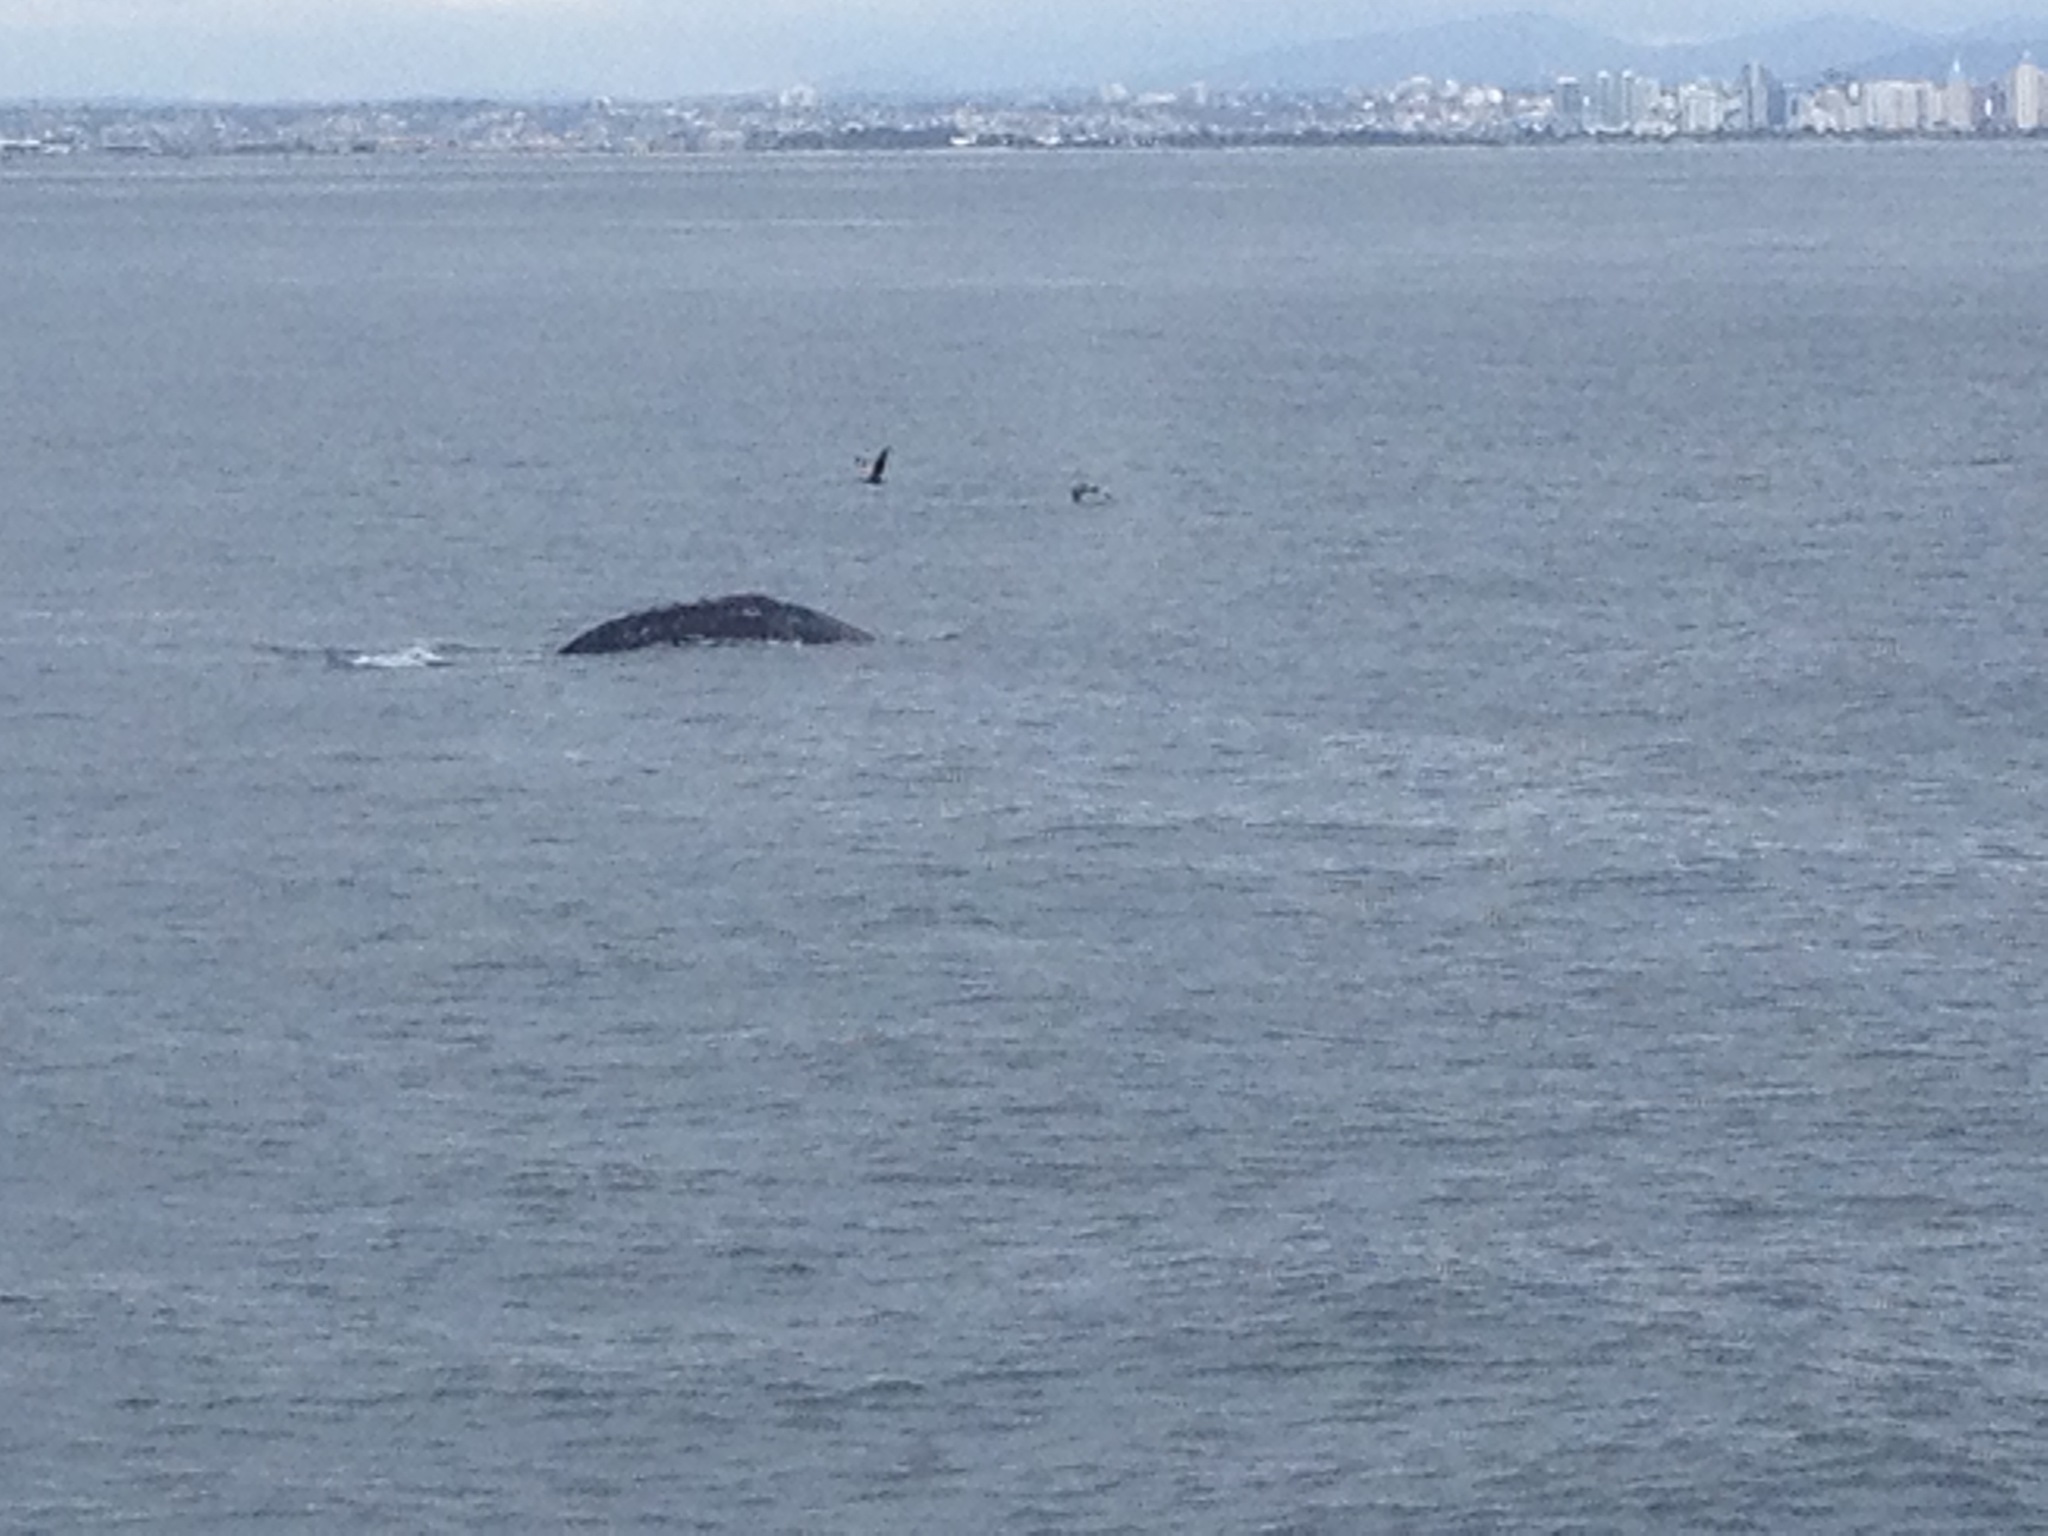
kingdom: Animalia
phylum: Chordata
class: Mammalia
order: Cetacea
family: Eschrichtiidae
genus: Eschrichtius
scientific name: Eschrichtius robustus
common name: Gray whale
